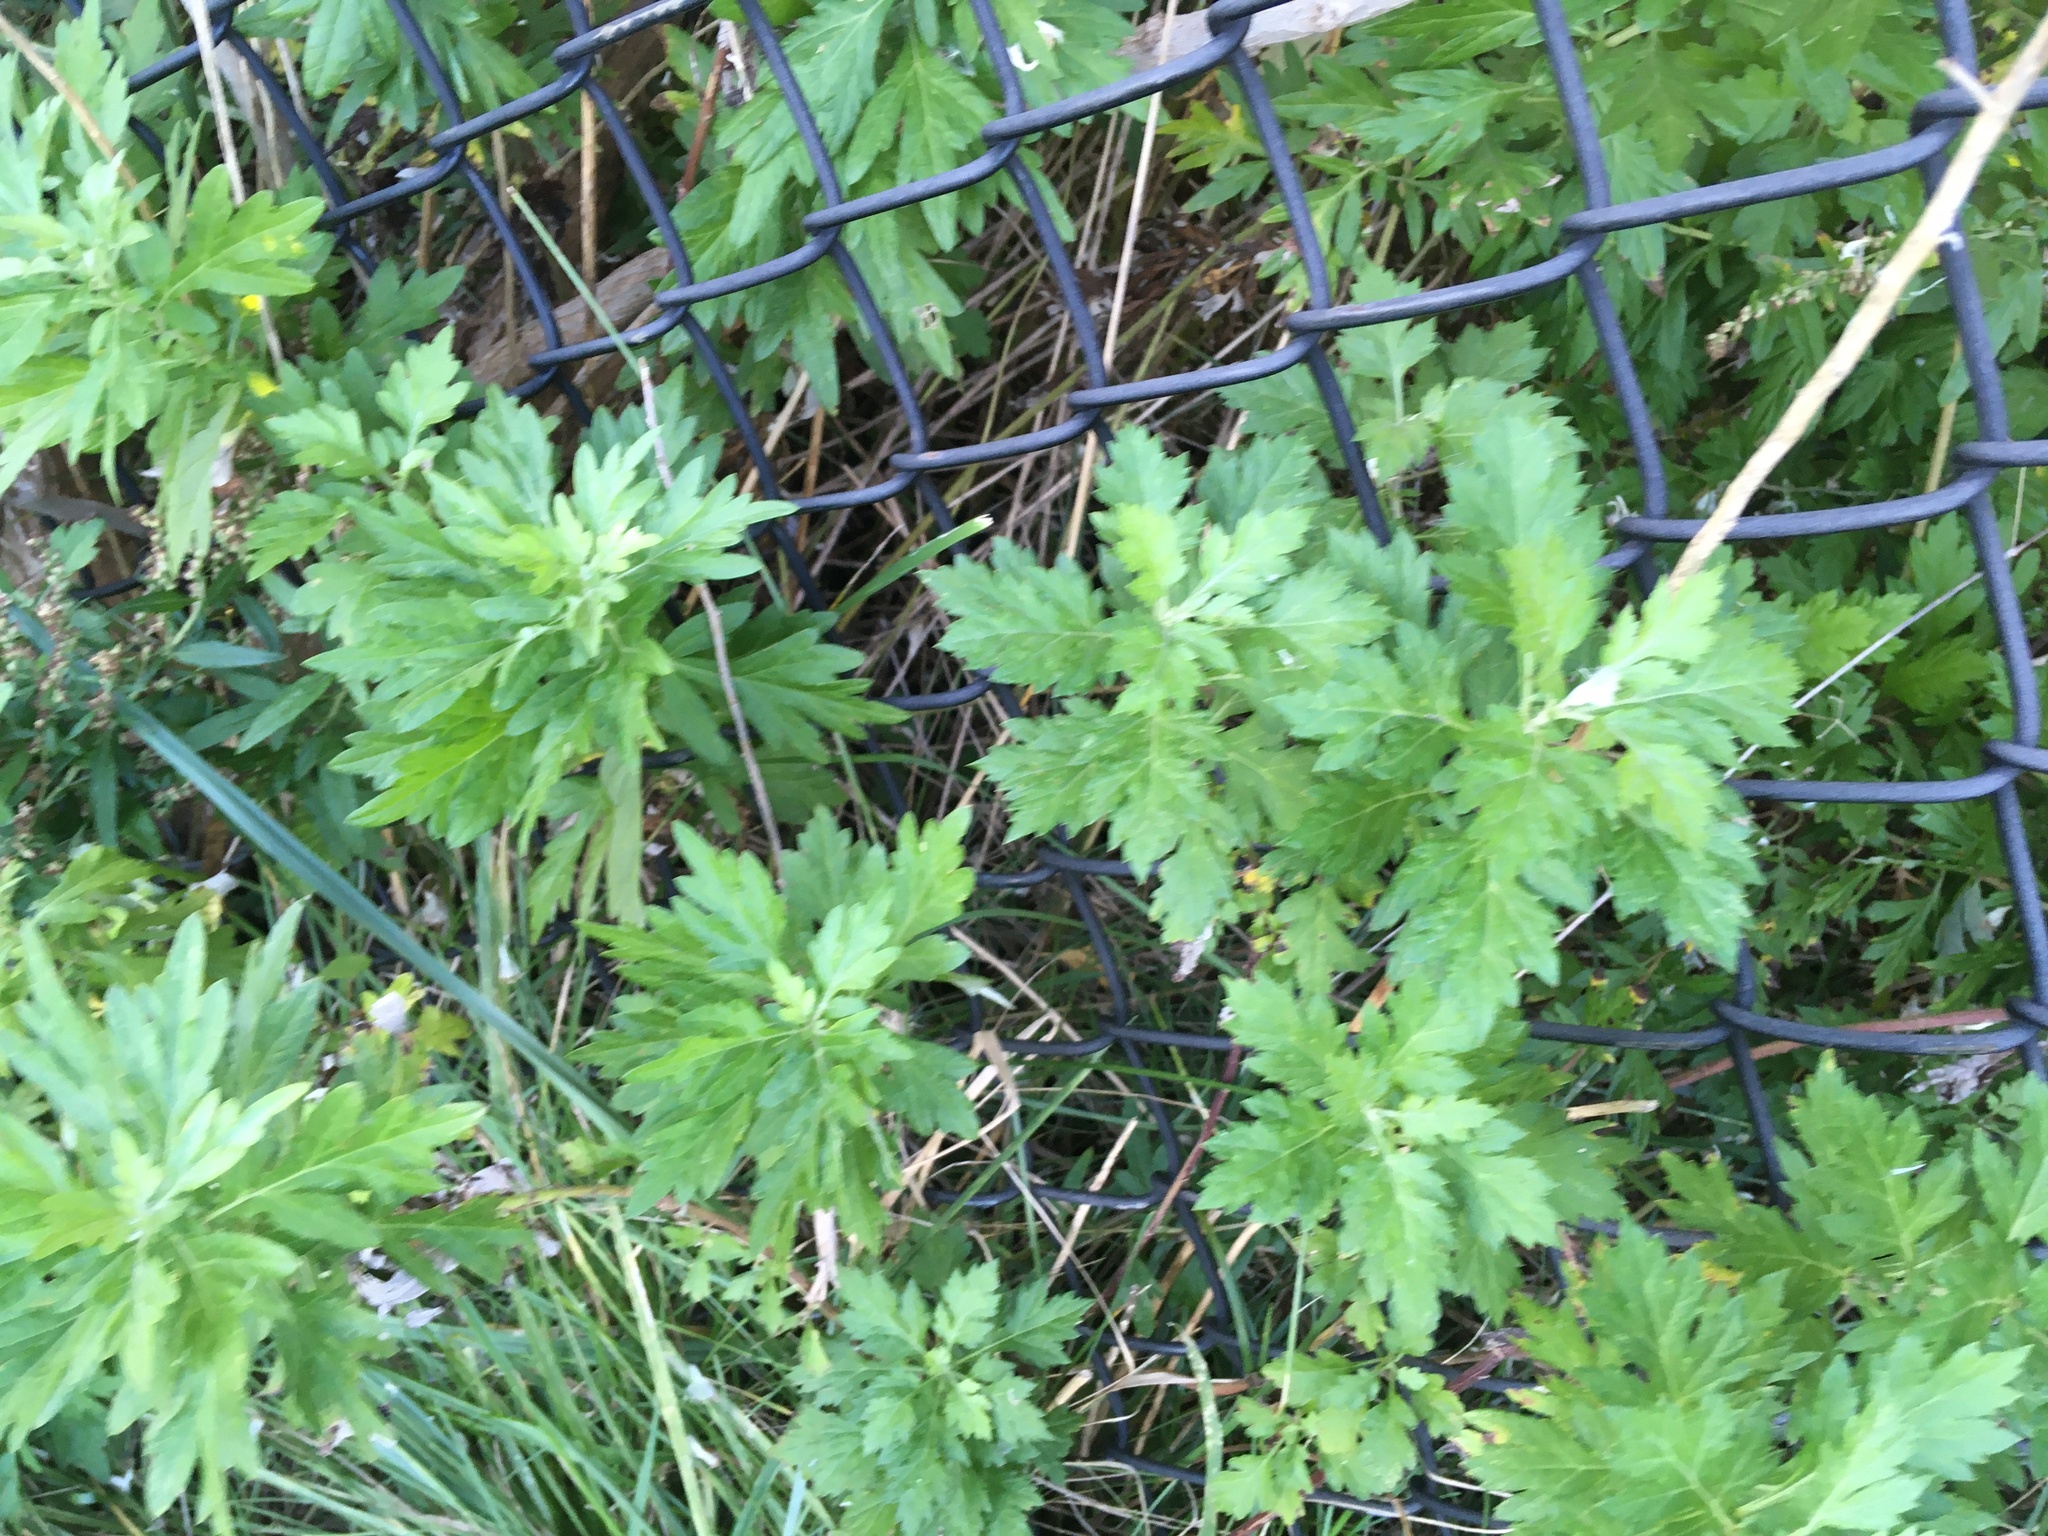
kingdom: Plantae
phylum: Tracheophyta
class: Magnoliopsida
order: Asterales
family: Asteraceae
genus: Artemisia
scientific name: Artemisia vulgaris
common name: Mugwort
